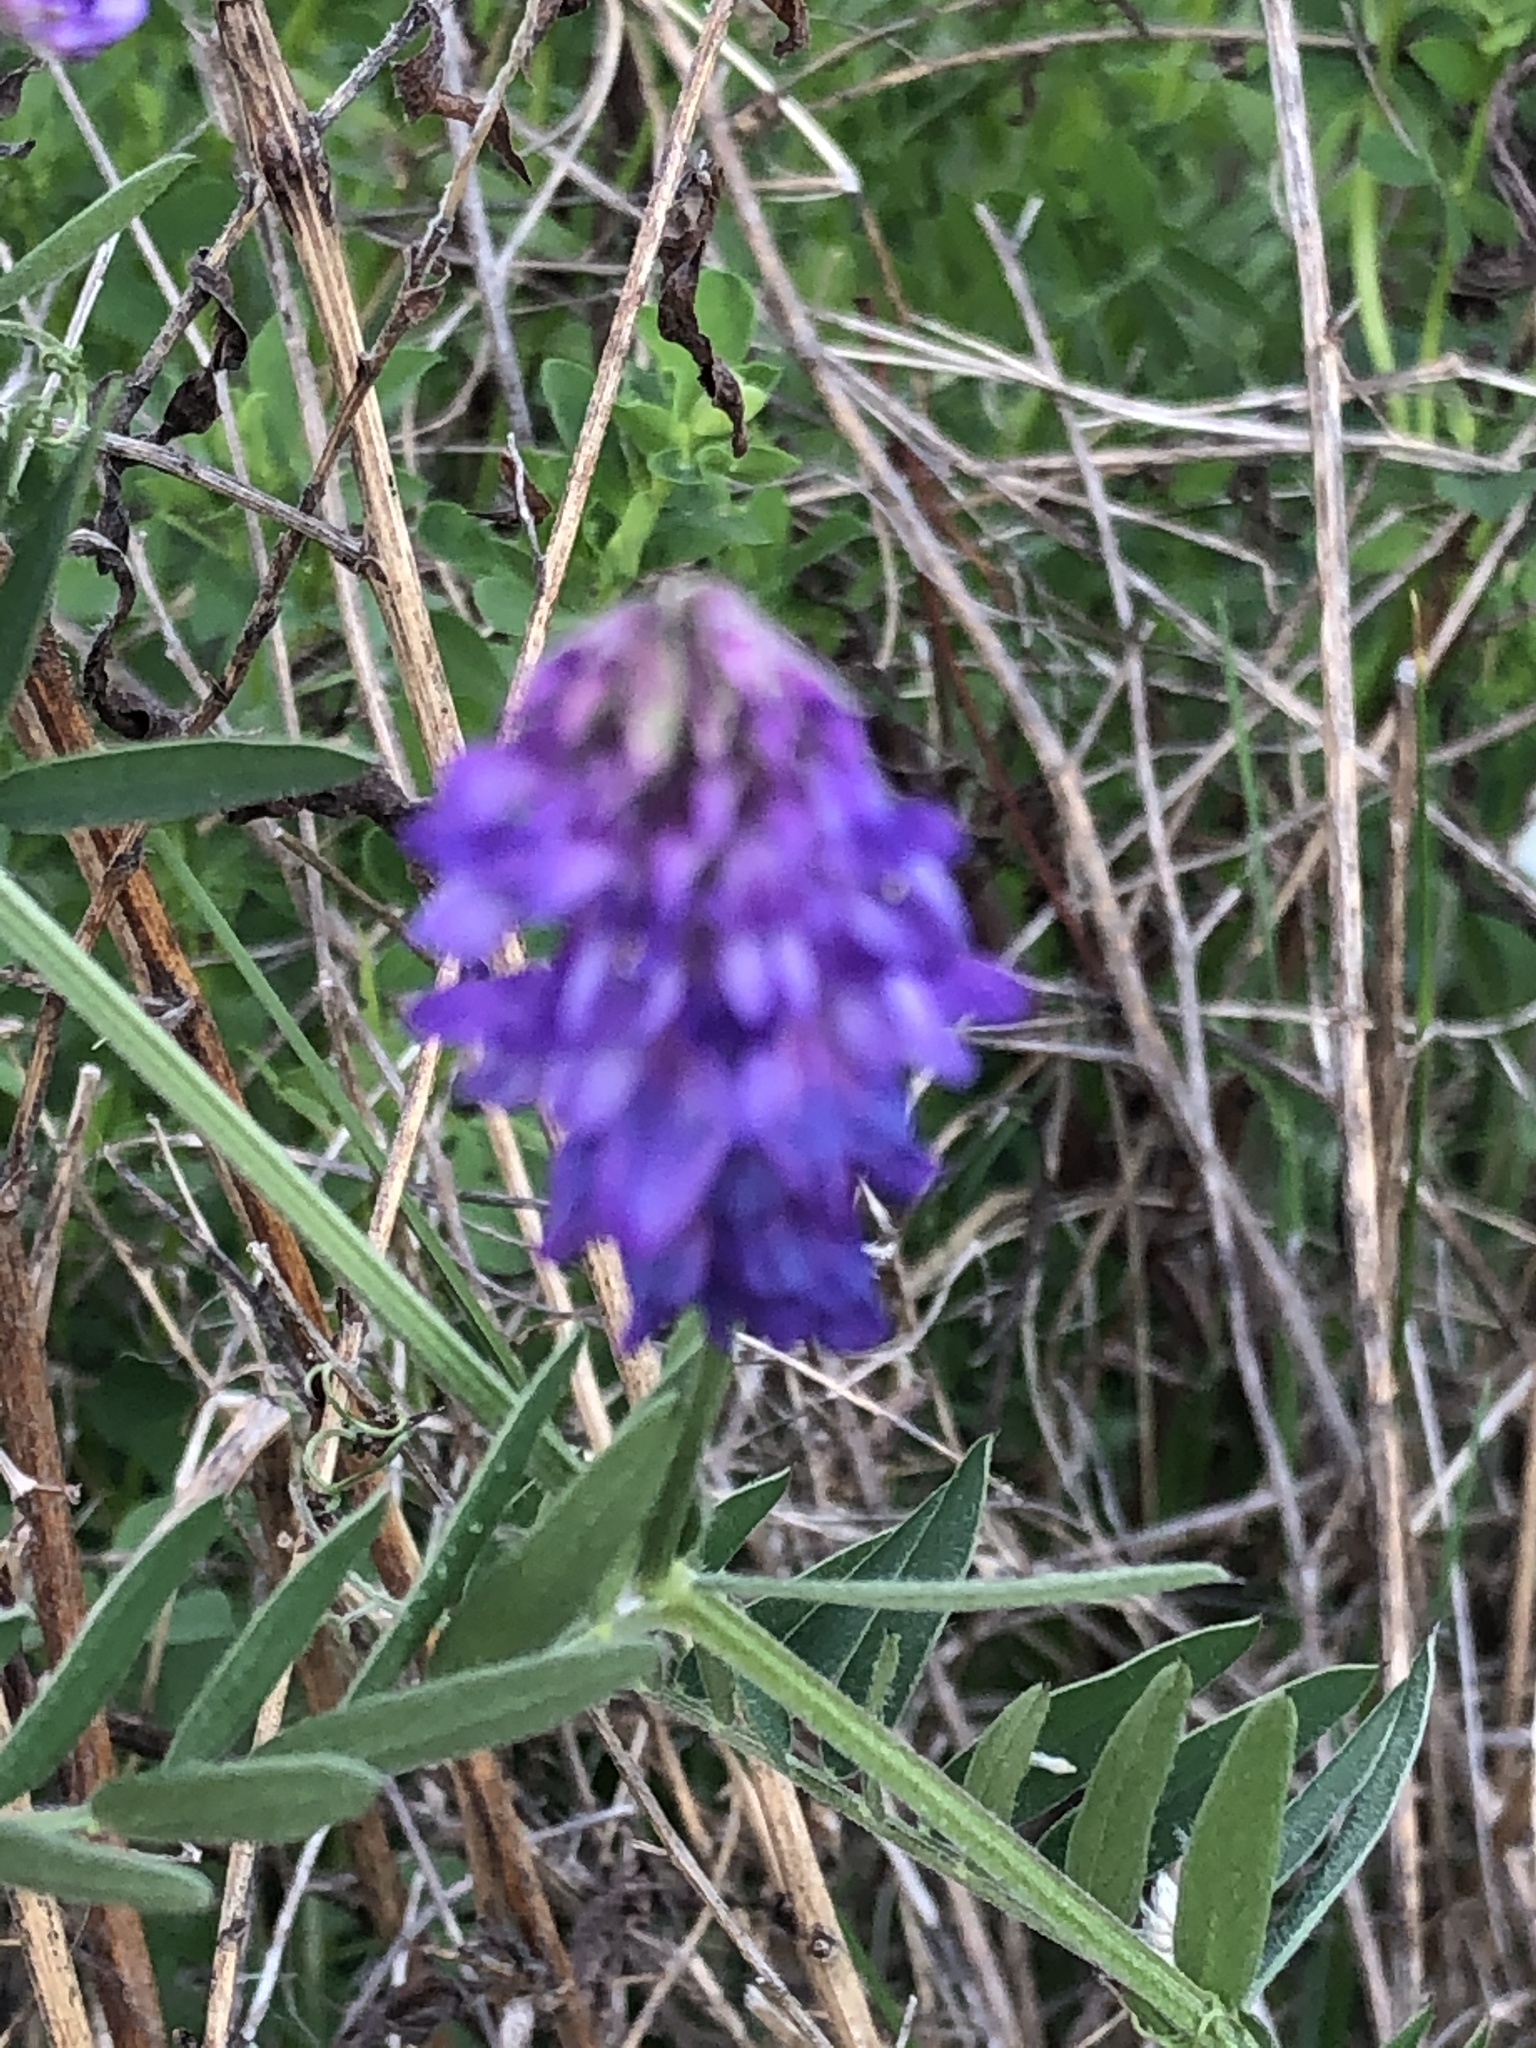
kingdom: Plantae
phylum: Tracheophyta
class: Magnoliopsida
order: Fabales
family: Fabaceae
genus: Vicia
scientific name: Vicia cracca
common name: Bird vetch
